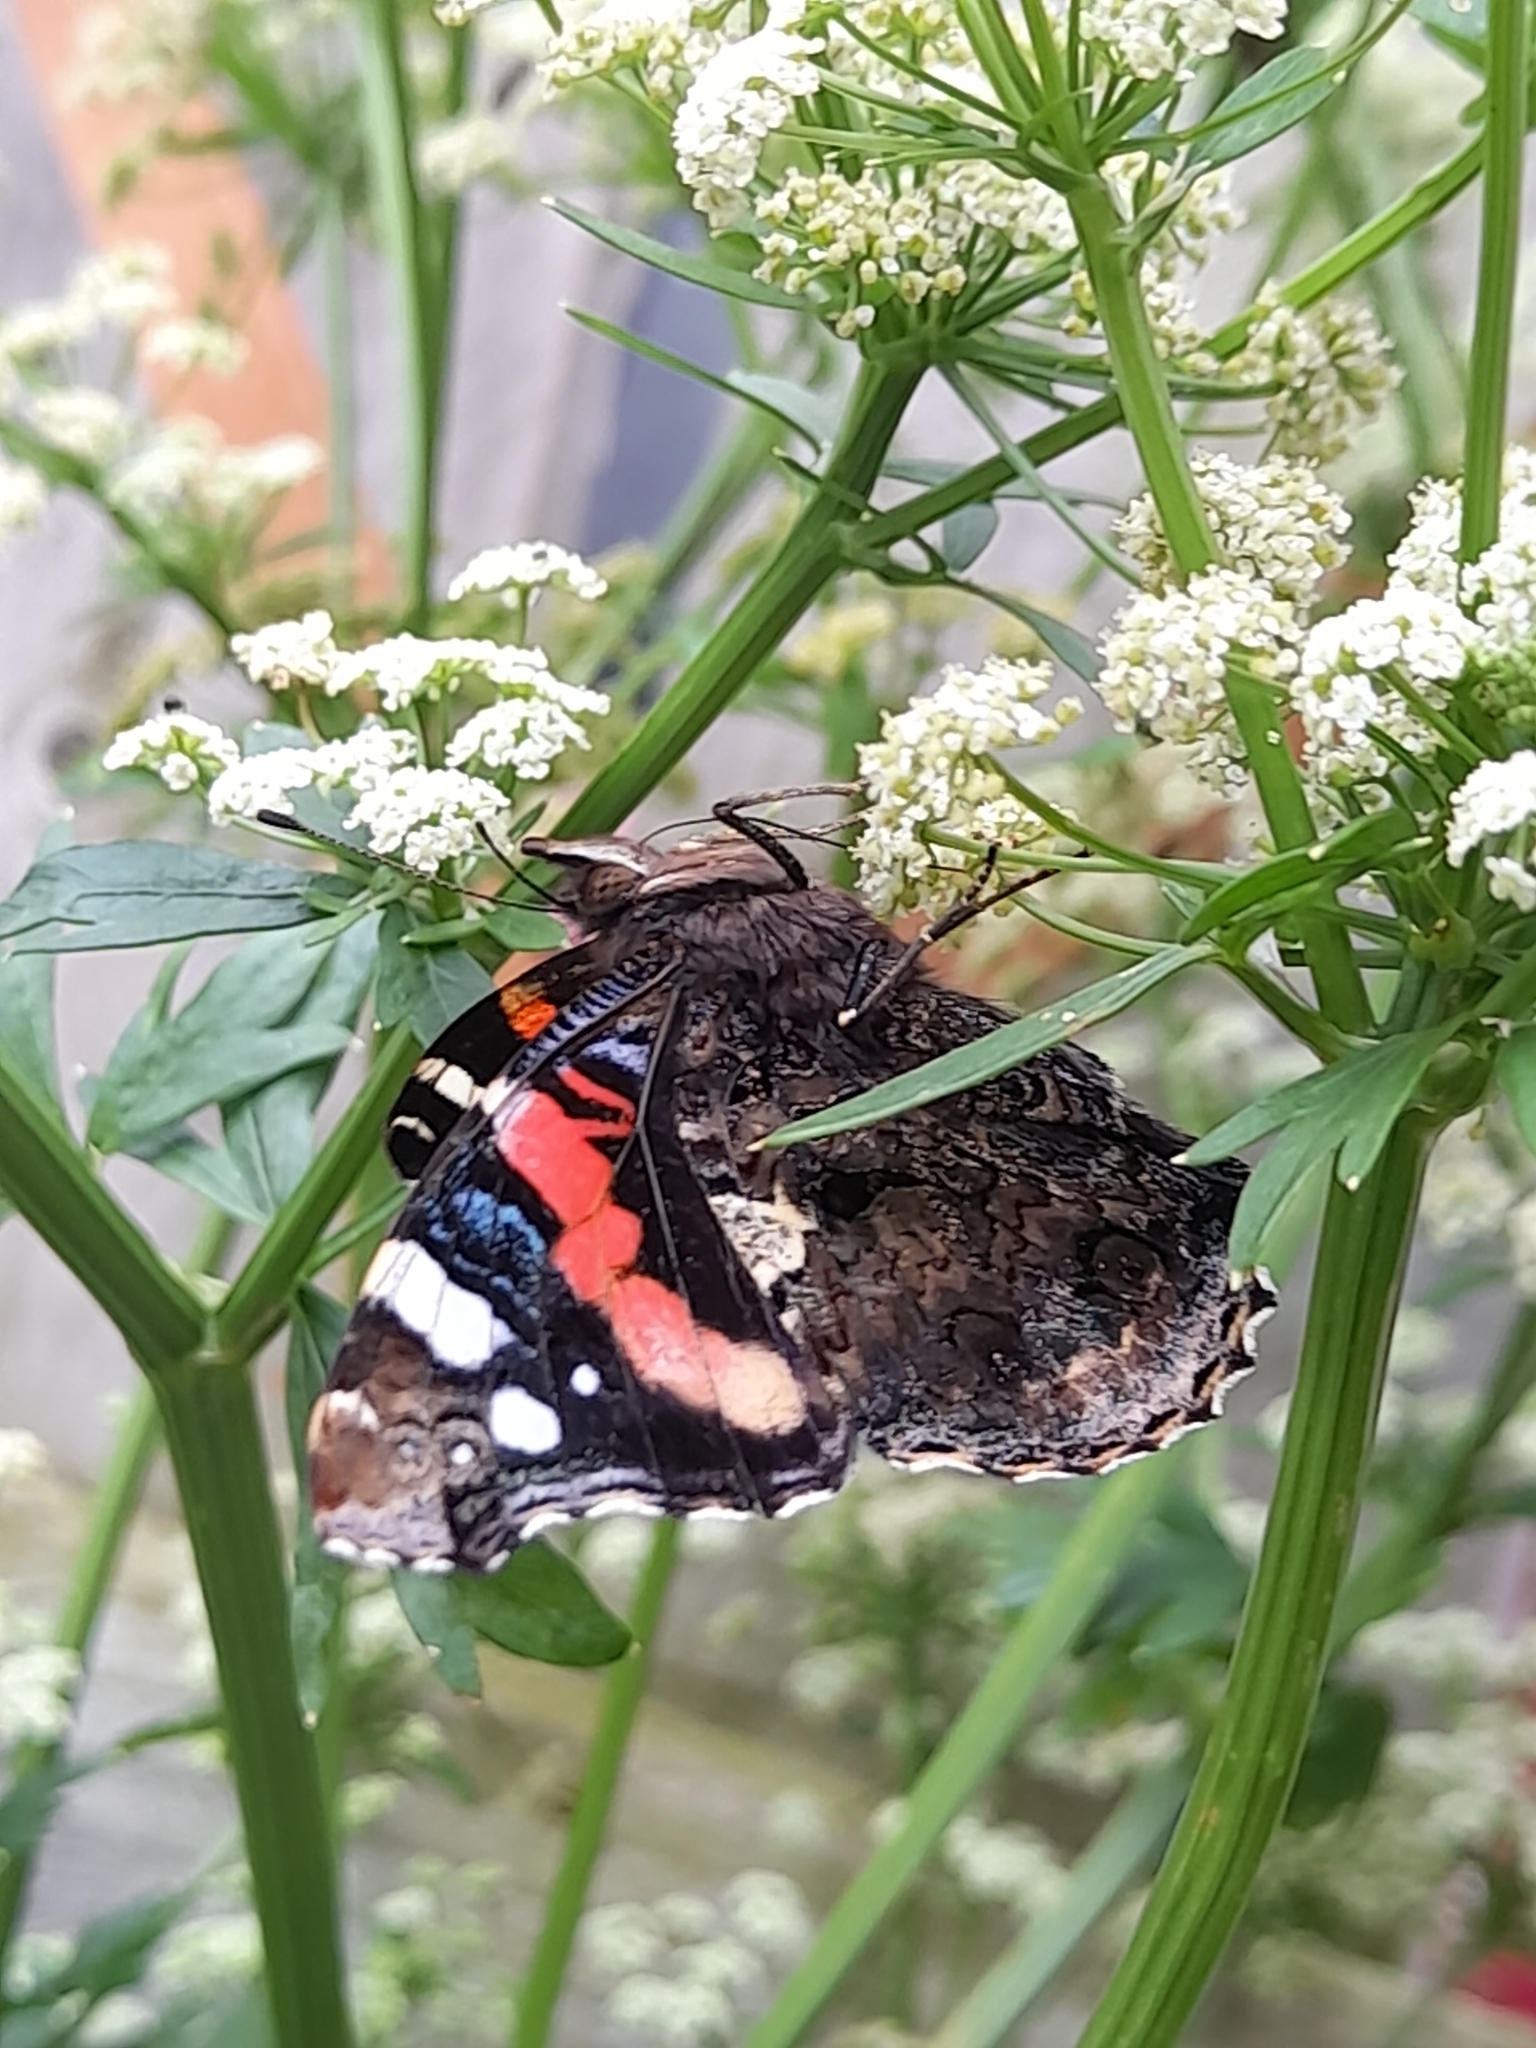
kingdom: Animalia
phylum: Arthropoda
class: Insecta
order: Lepidoptera
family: Nymphalidae
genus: Vanessa
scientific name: Vanessa atalanta
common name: Red admiral
